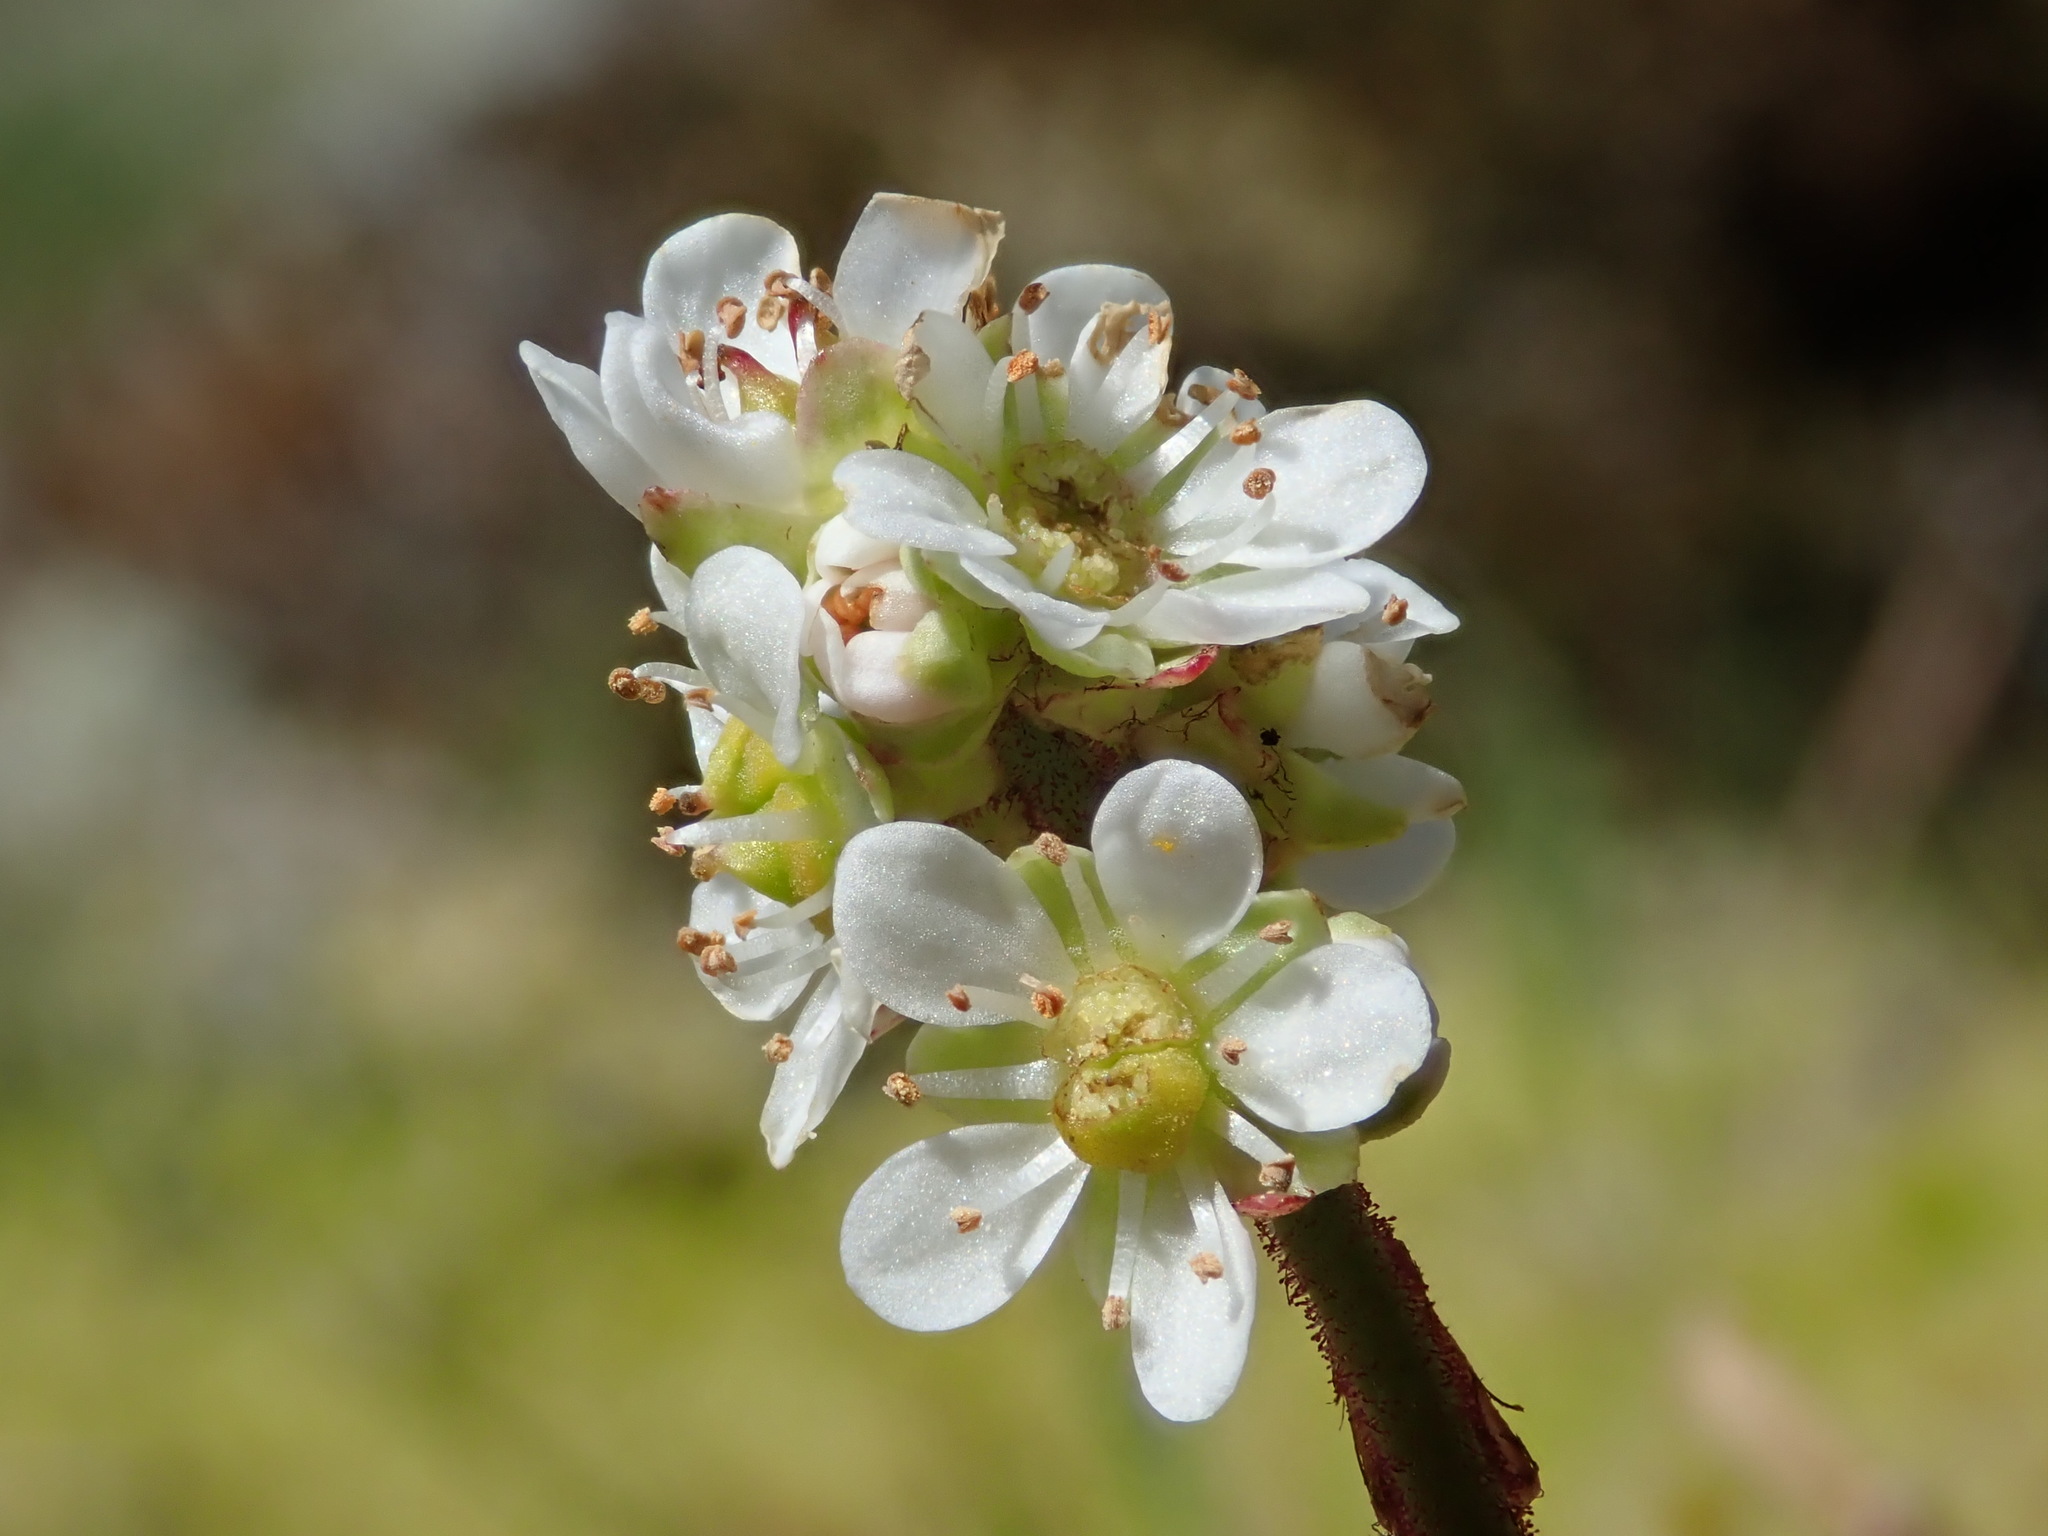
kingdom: Plantae
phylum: Tracheophyta
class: Magnoliopsida
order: Saxifragales
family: Saxifragaceae
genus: Micranthes
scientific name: Micranthes integrifolia
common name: Wholeleaf saxifrage
